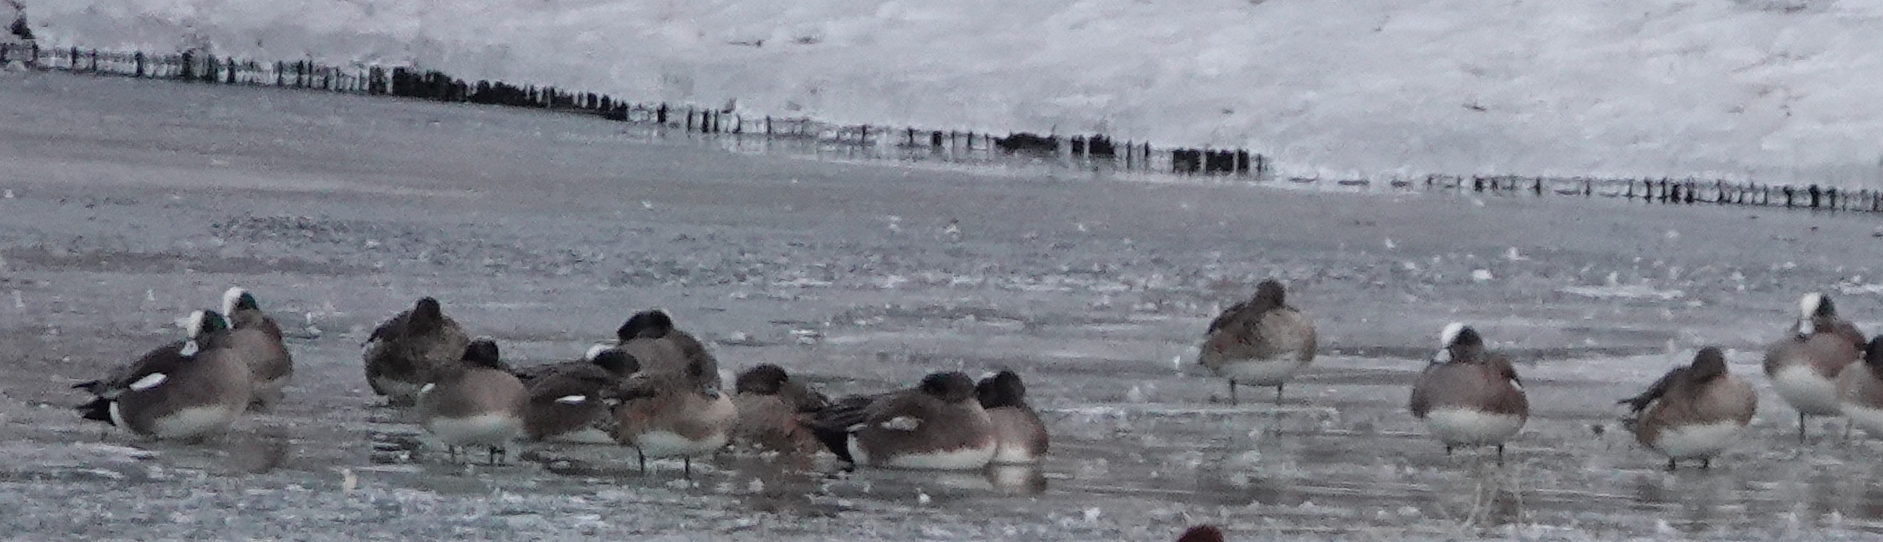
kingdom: Animalia
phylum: Chordata
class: Aves
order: Anseriformes
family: Anatidae
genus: Mareca
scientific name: Mareca americana
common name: American wigeon
